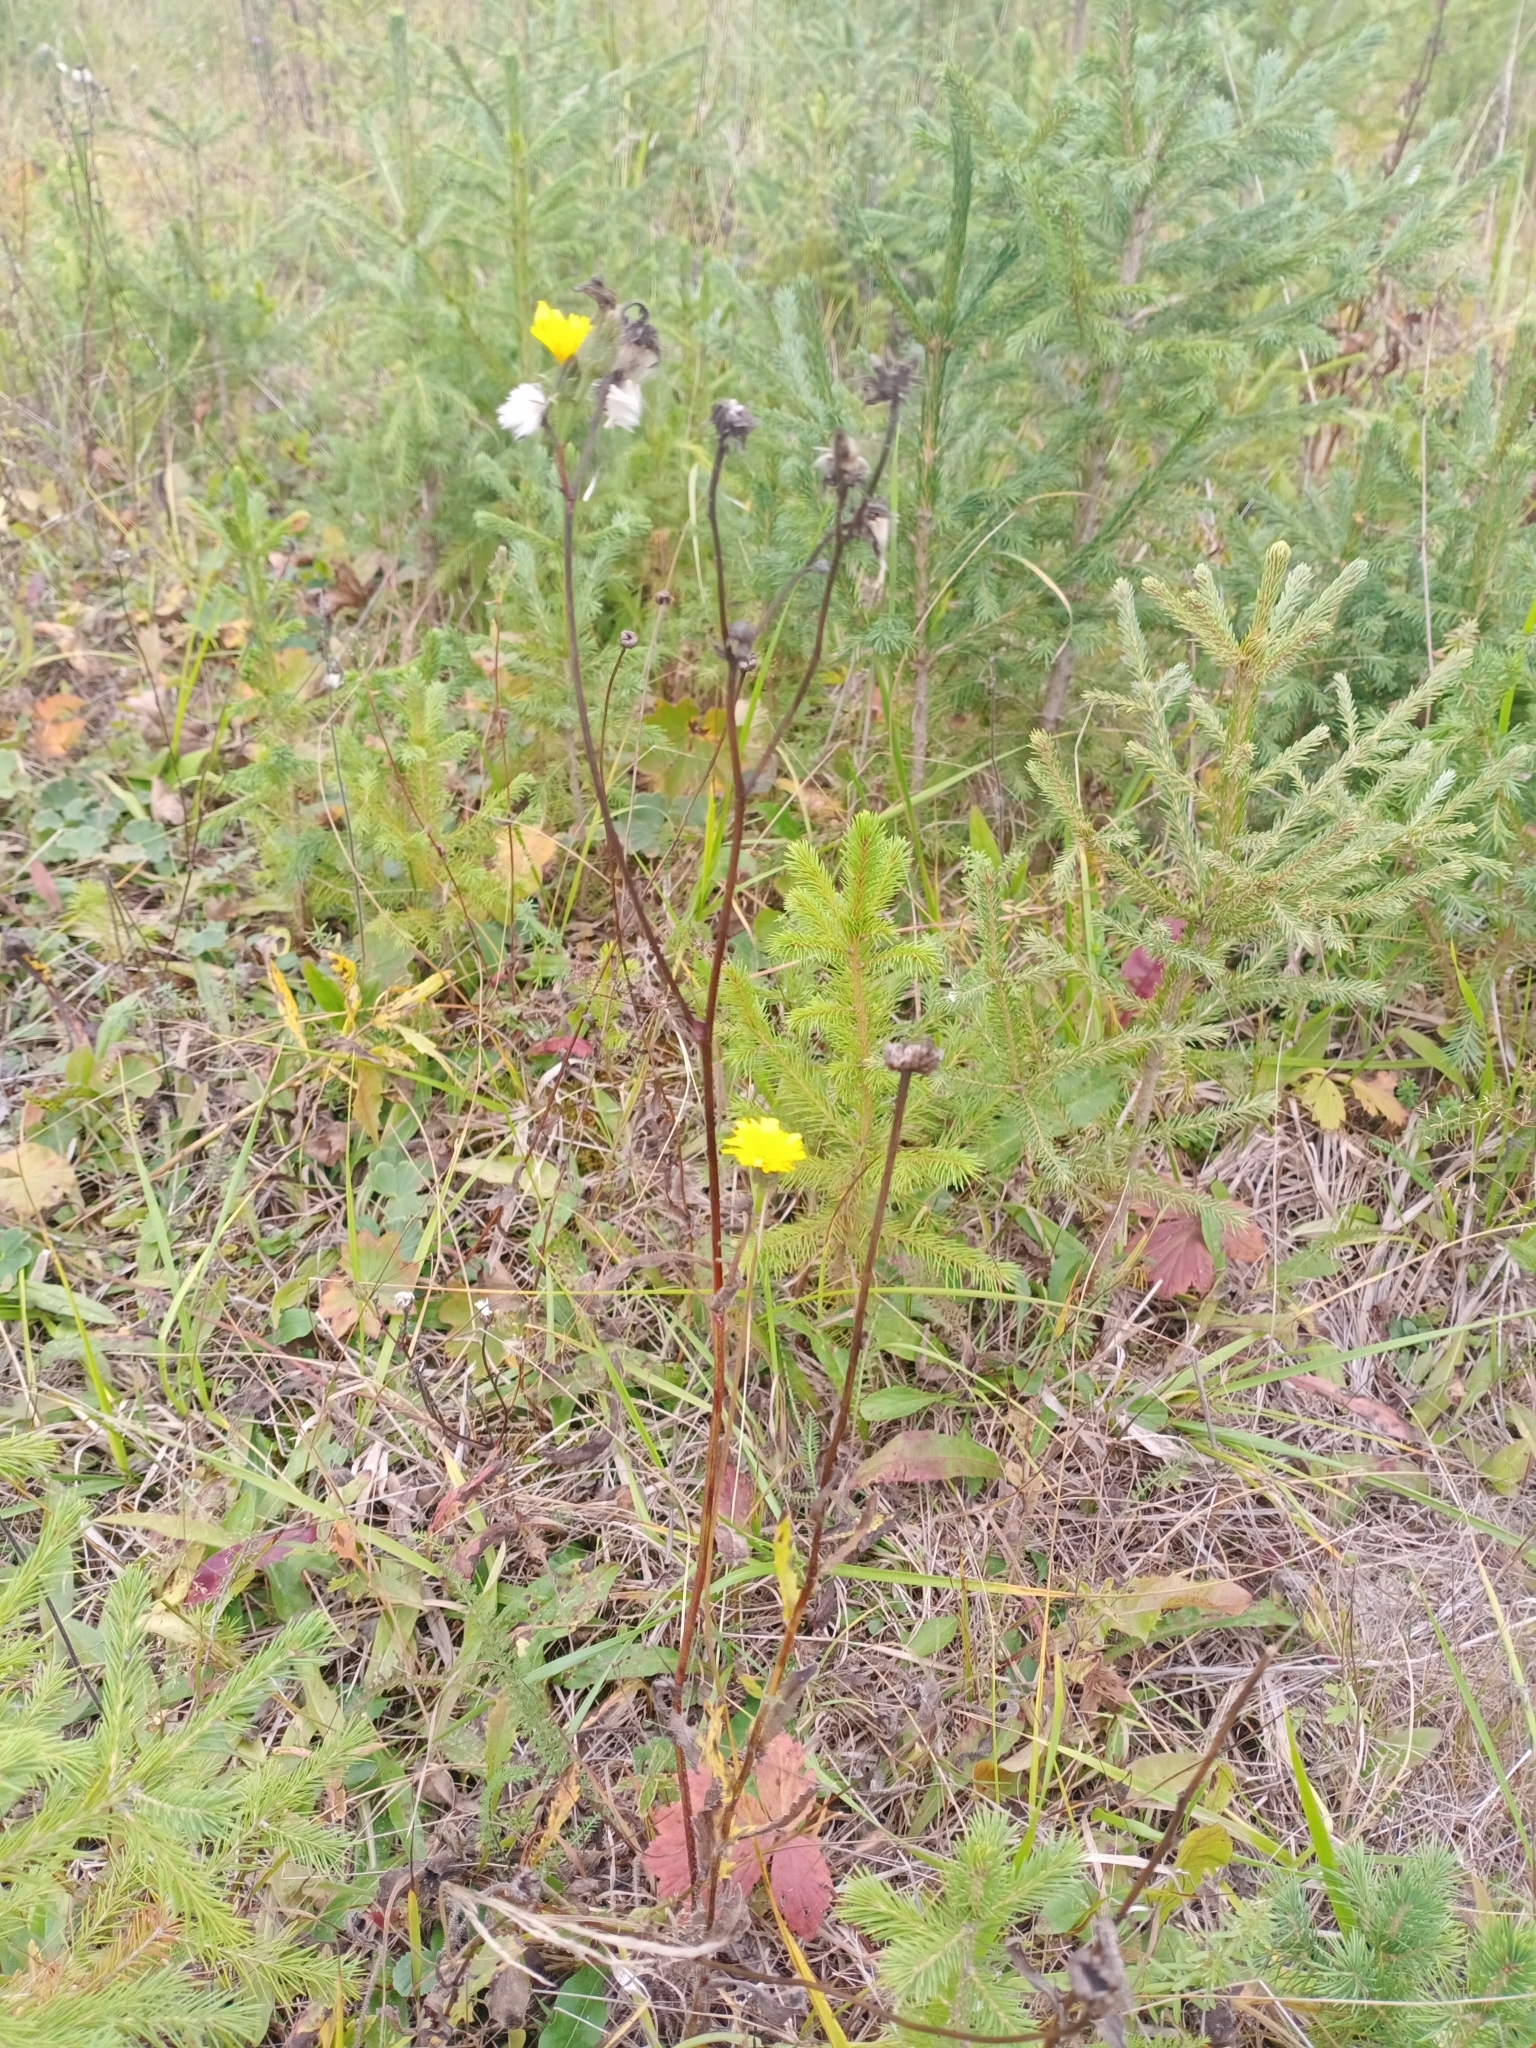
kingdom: Plantae
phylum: Tracheophyta
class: Magnoliopsida
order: Asterales
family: Asteraceae
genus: Picris
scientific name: Picris hieracioides
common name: Hawkweed oxtongue
